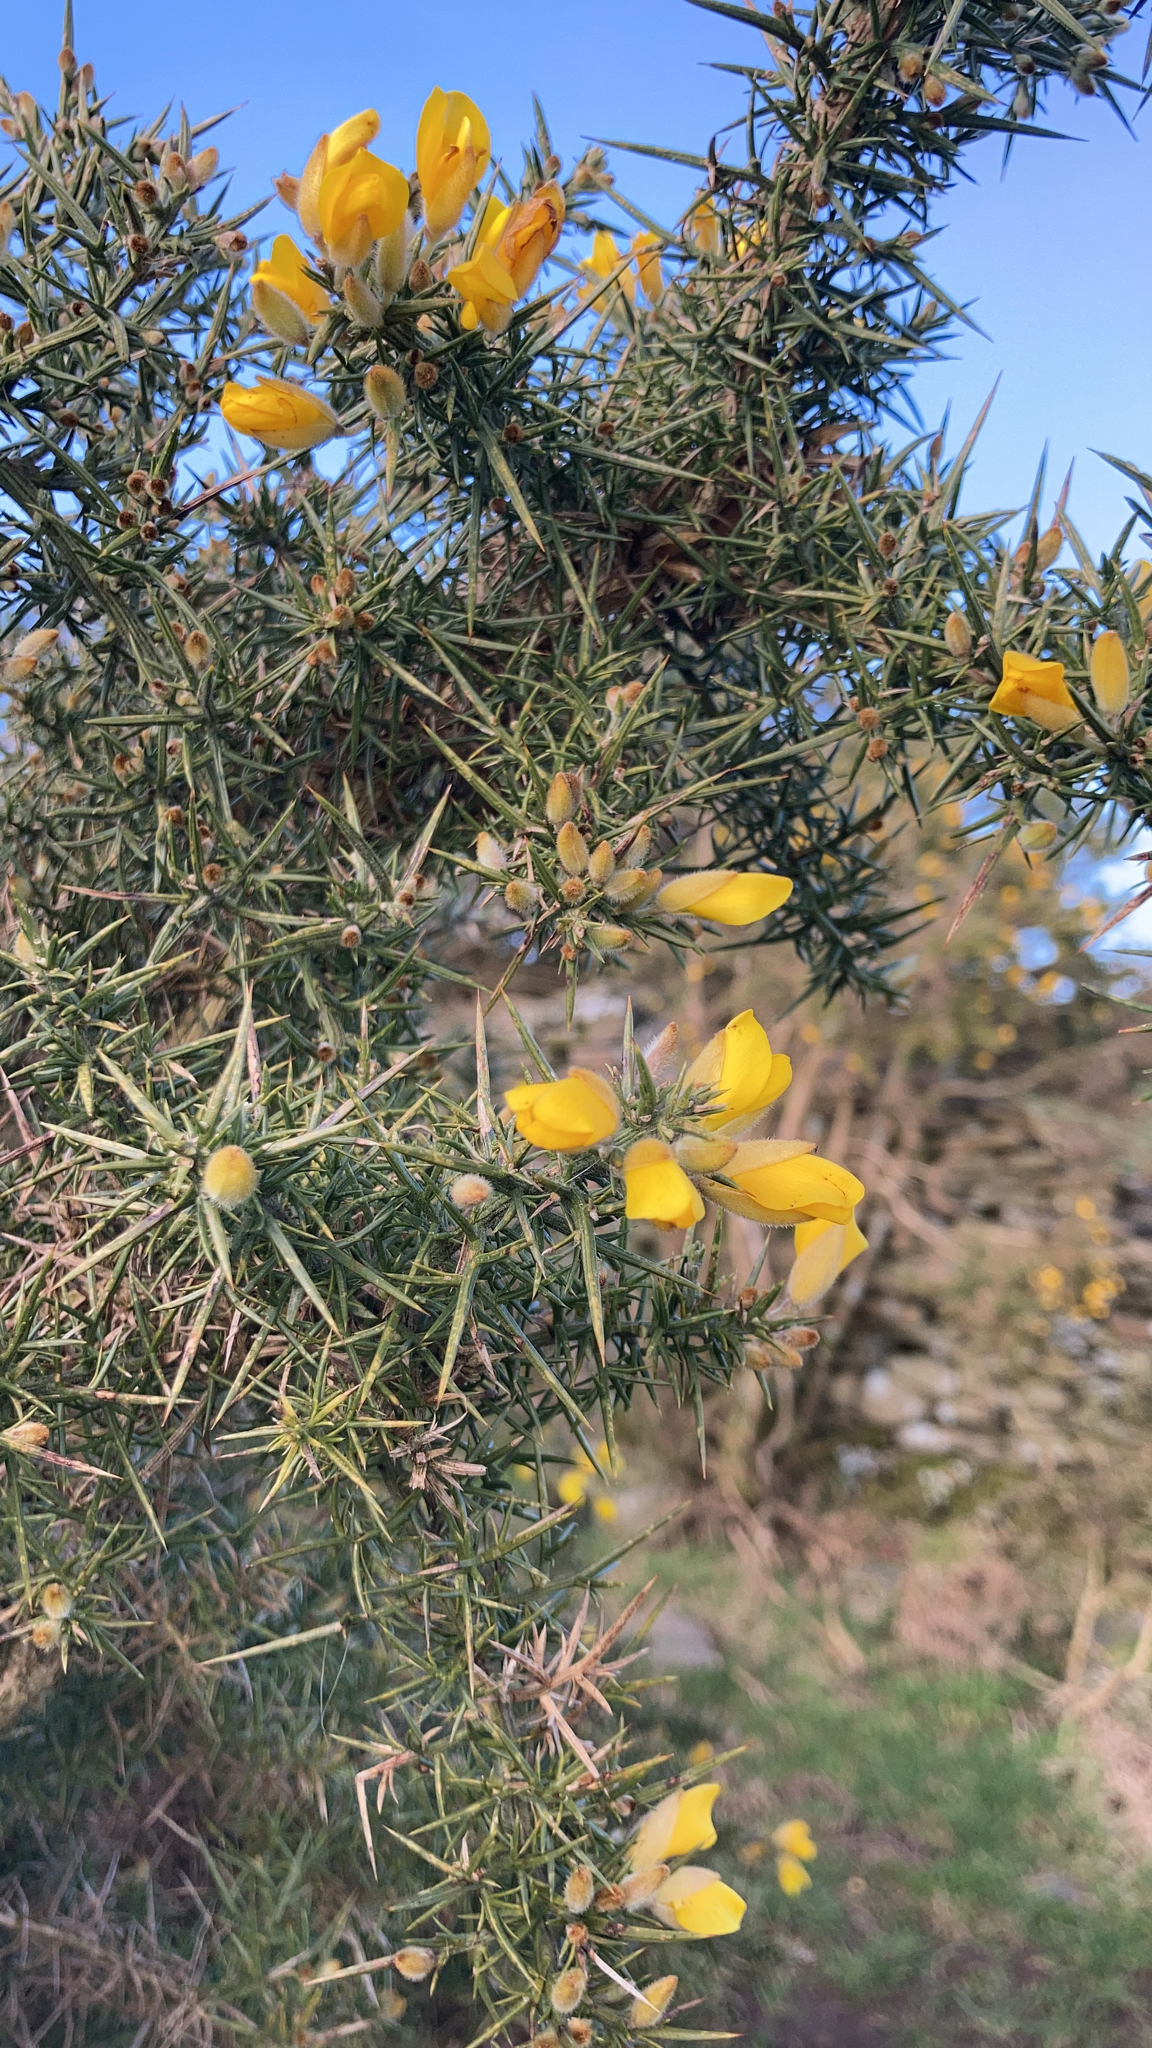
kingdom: Plantae
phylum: Tracheophyta
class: Magnoliopsida
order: Fabales
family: Fabaceae
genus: Ulex
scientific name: Ulex europaeus
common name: Common gorse
